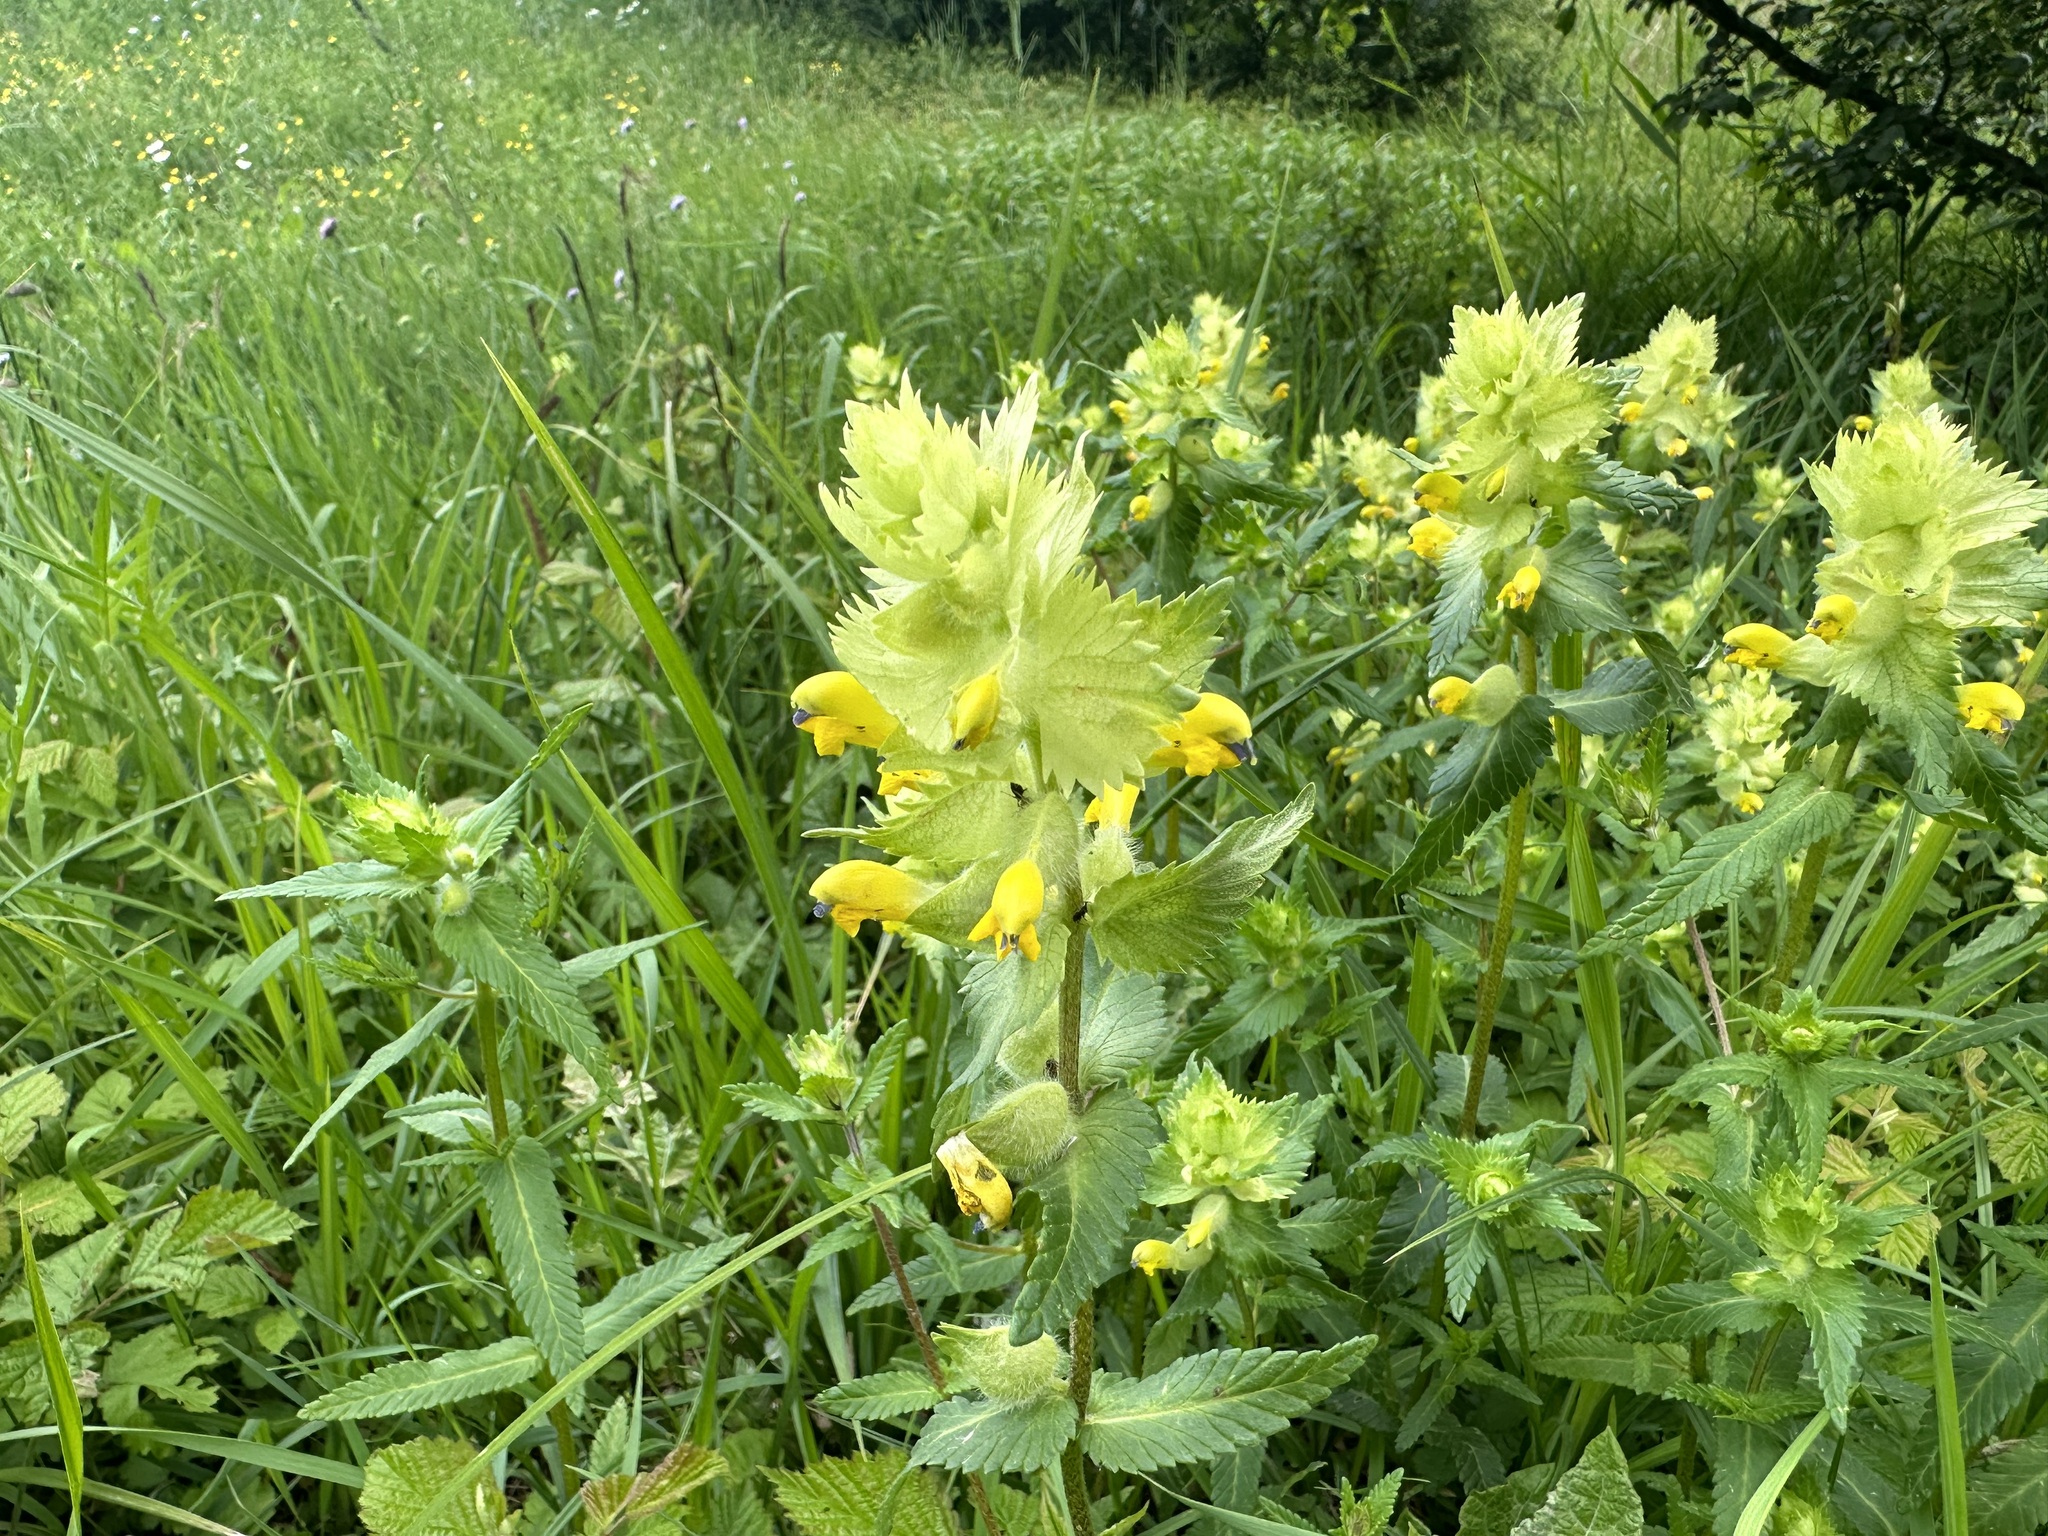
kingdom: Plantae
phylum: Tracheophyta
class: Magnoliopsida
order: Lamiales
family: Orobanchaceae
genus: Rhinanthus
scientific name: Rhinanthus alectorolophus
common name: Greater yellow-rattle
